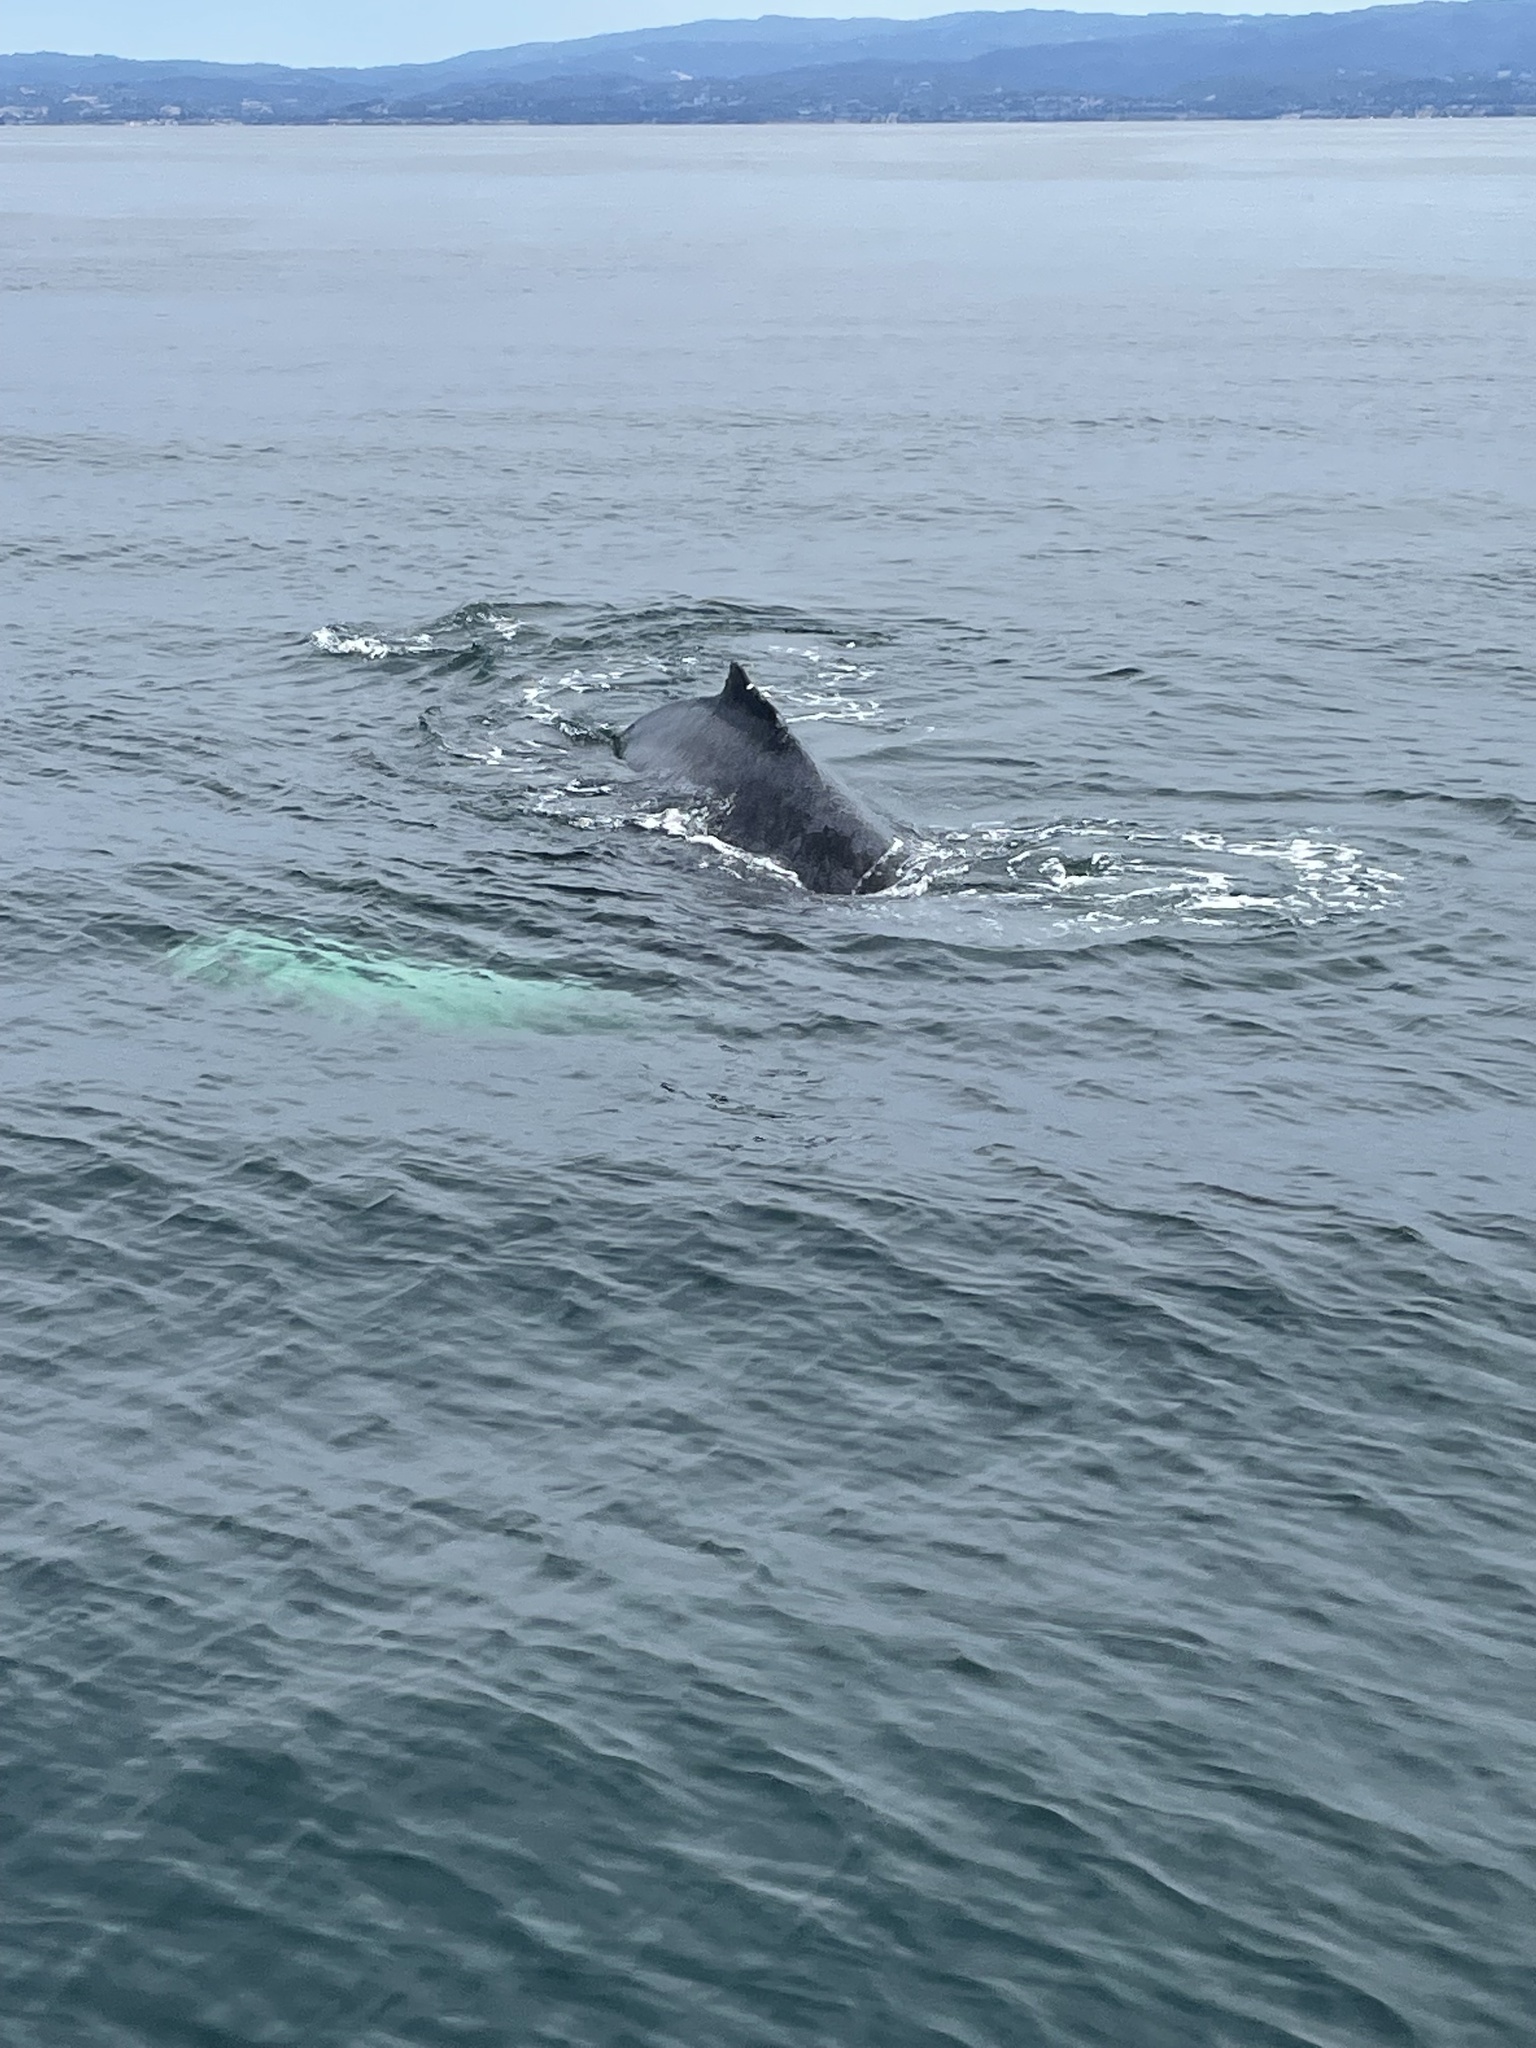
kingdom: Animalia
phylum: Chordata
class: Mammalia
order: Cetacea
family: Balaenopteridae
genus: Megaptera
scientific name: Megaptera novaeangliae
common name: Humpback whale
